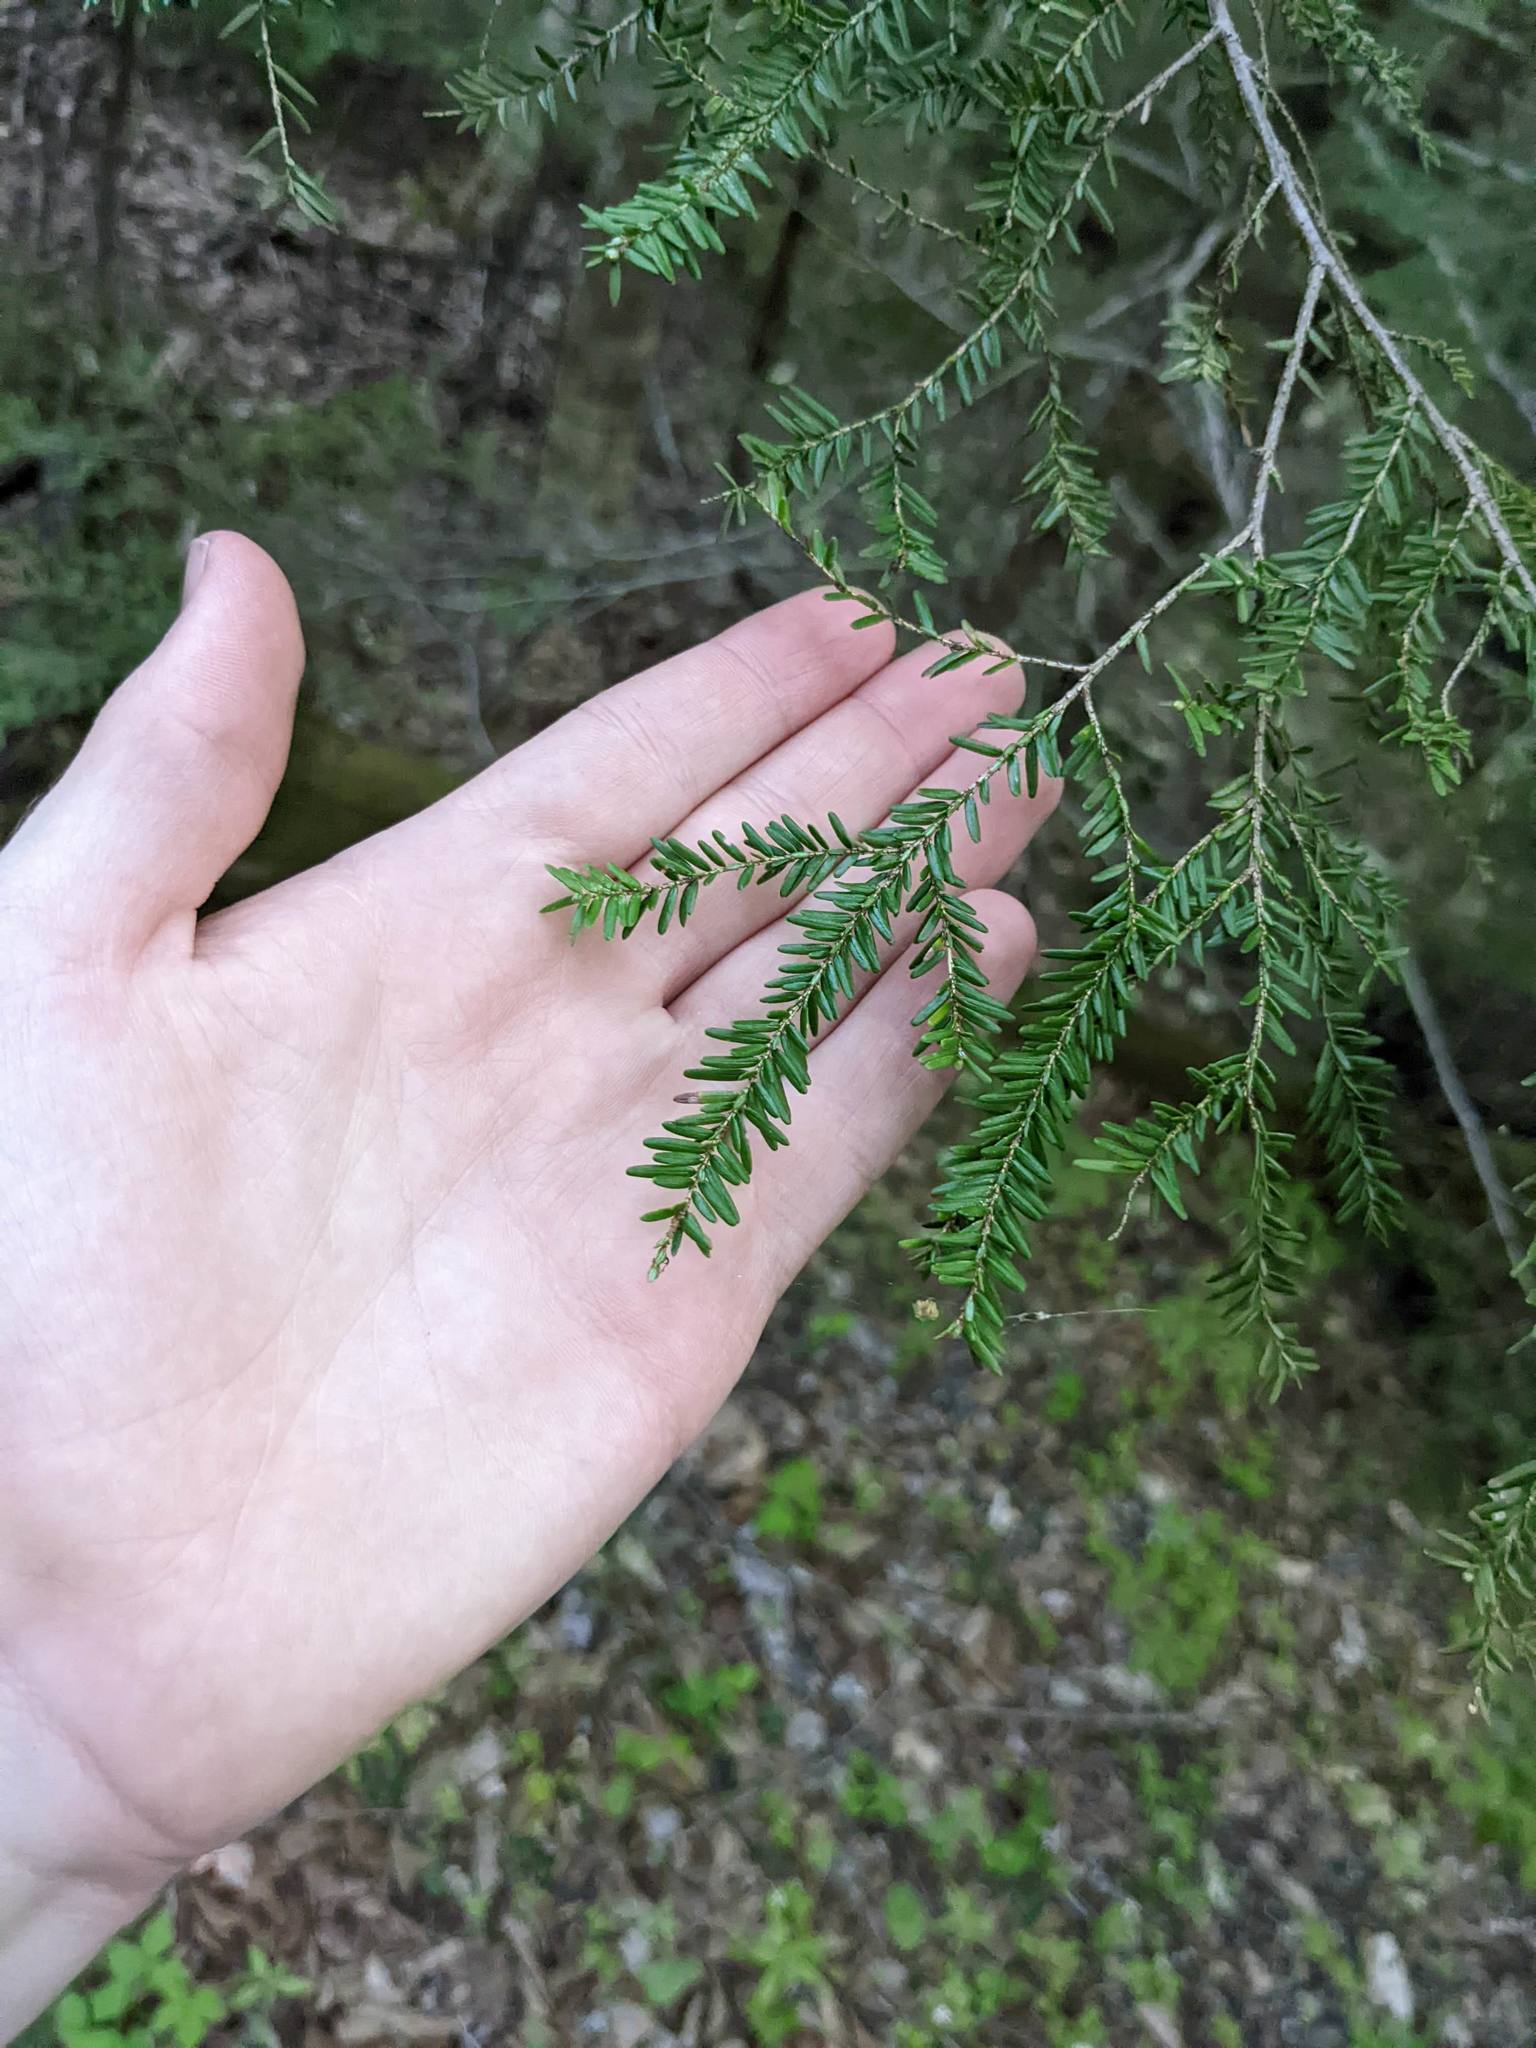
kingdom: Plantae
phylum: Tracheophyta
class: Pinopsida
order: Pinales
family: Pinaceae
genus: Tsuga
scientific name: Tsuga canadensis
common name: Eastern hemlock
